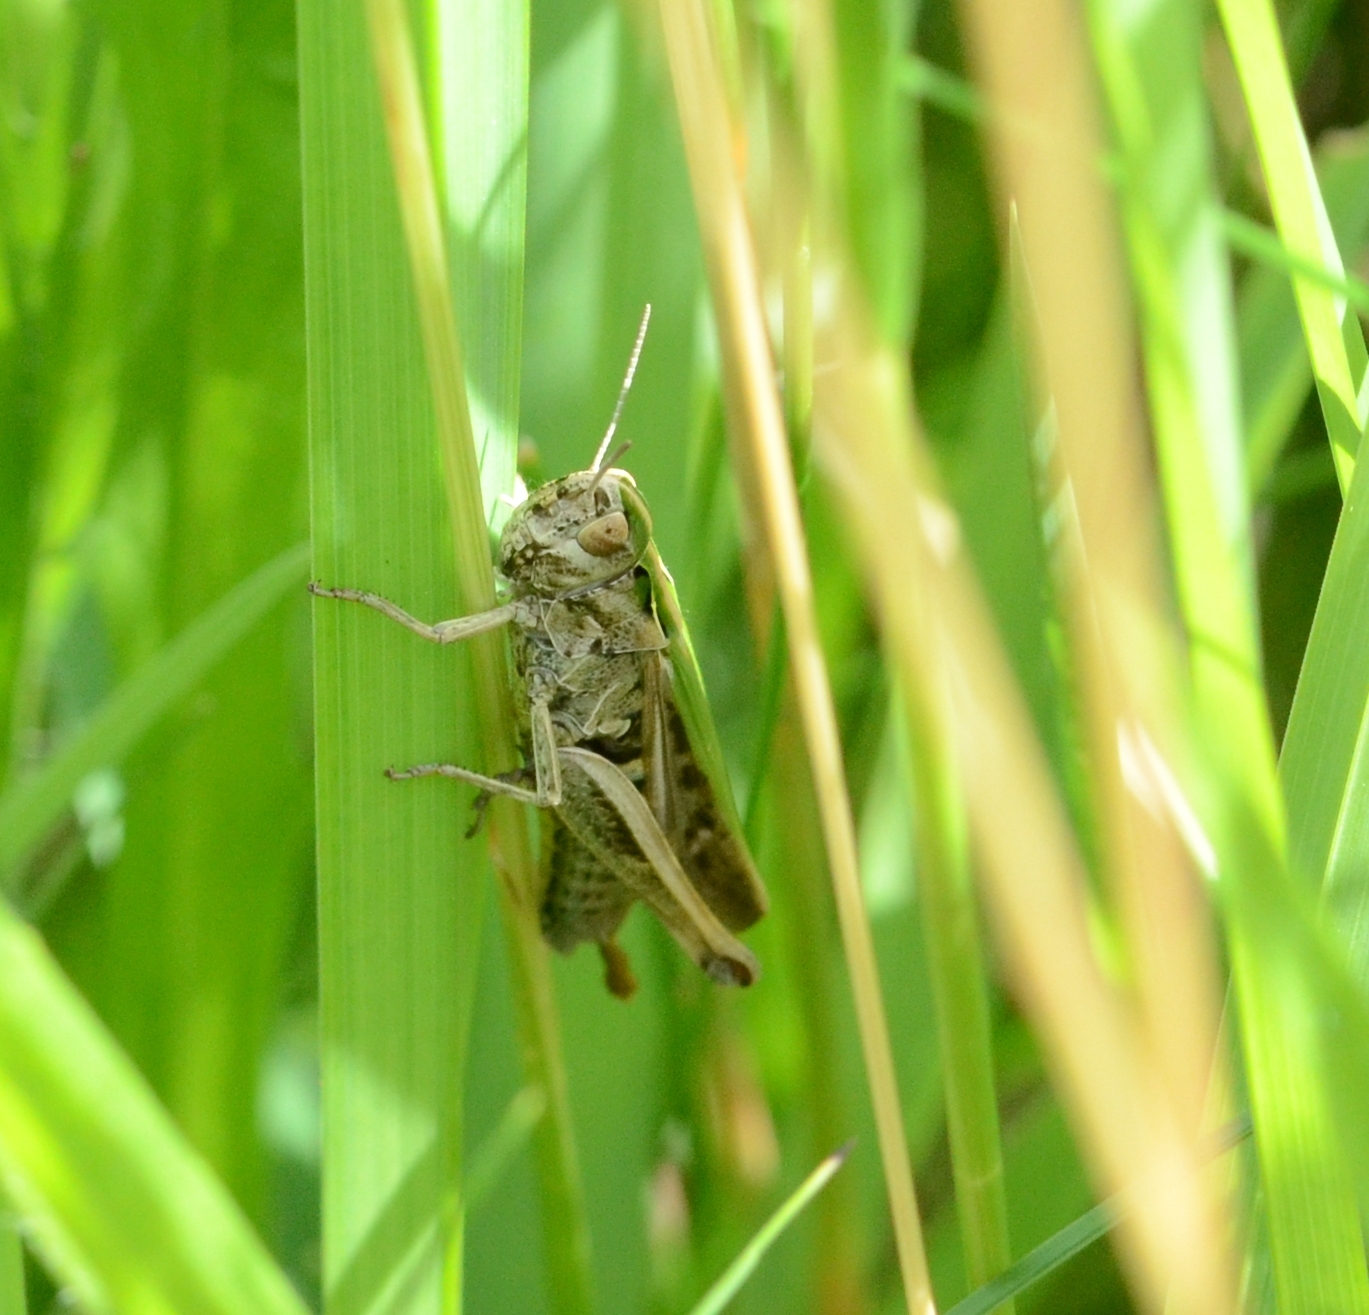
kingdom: Animalia
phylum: Arthropoda
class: Insecta
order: Orthoptera
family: Acrididae
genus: Omocestus
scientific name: Omocestus viridulus
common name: Common green grasshopper
